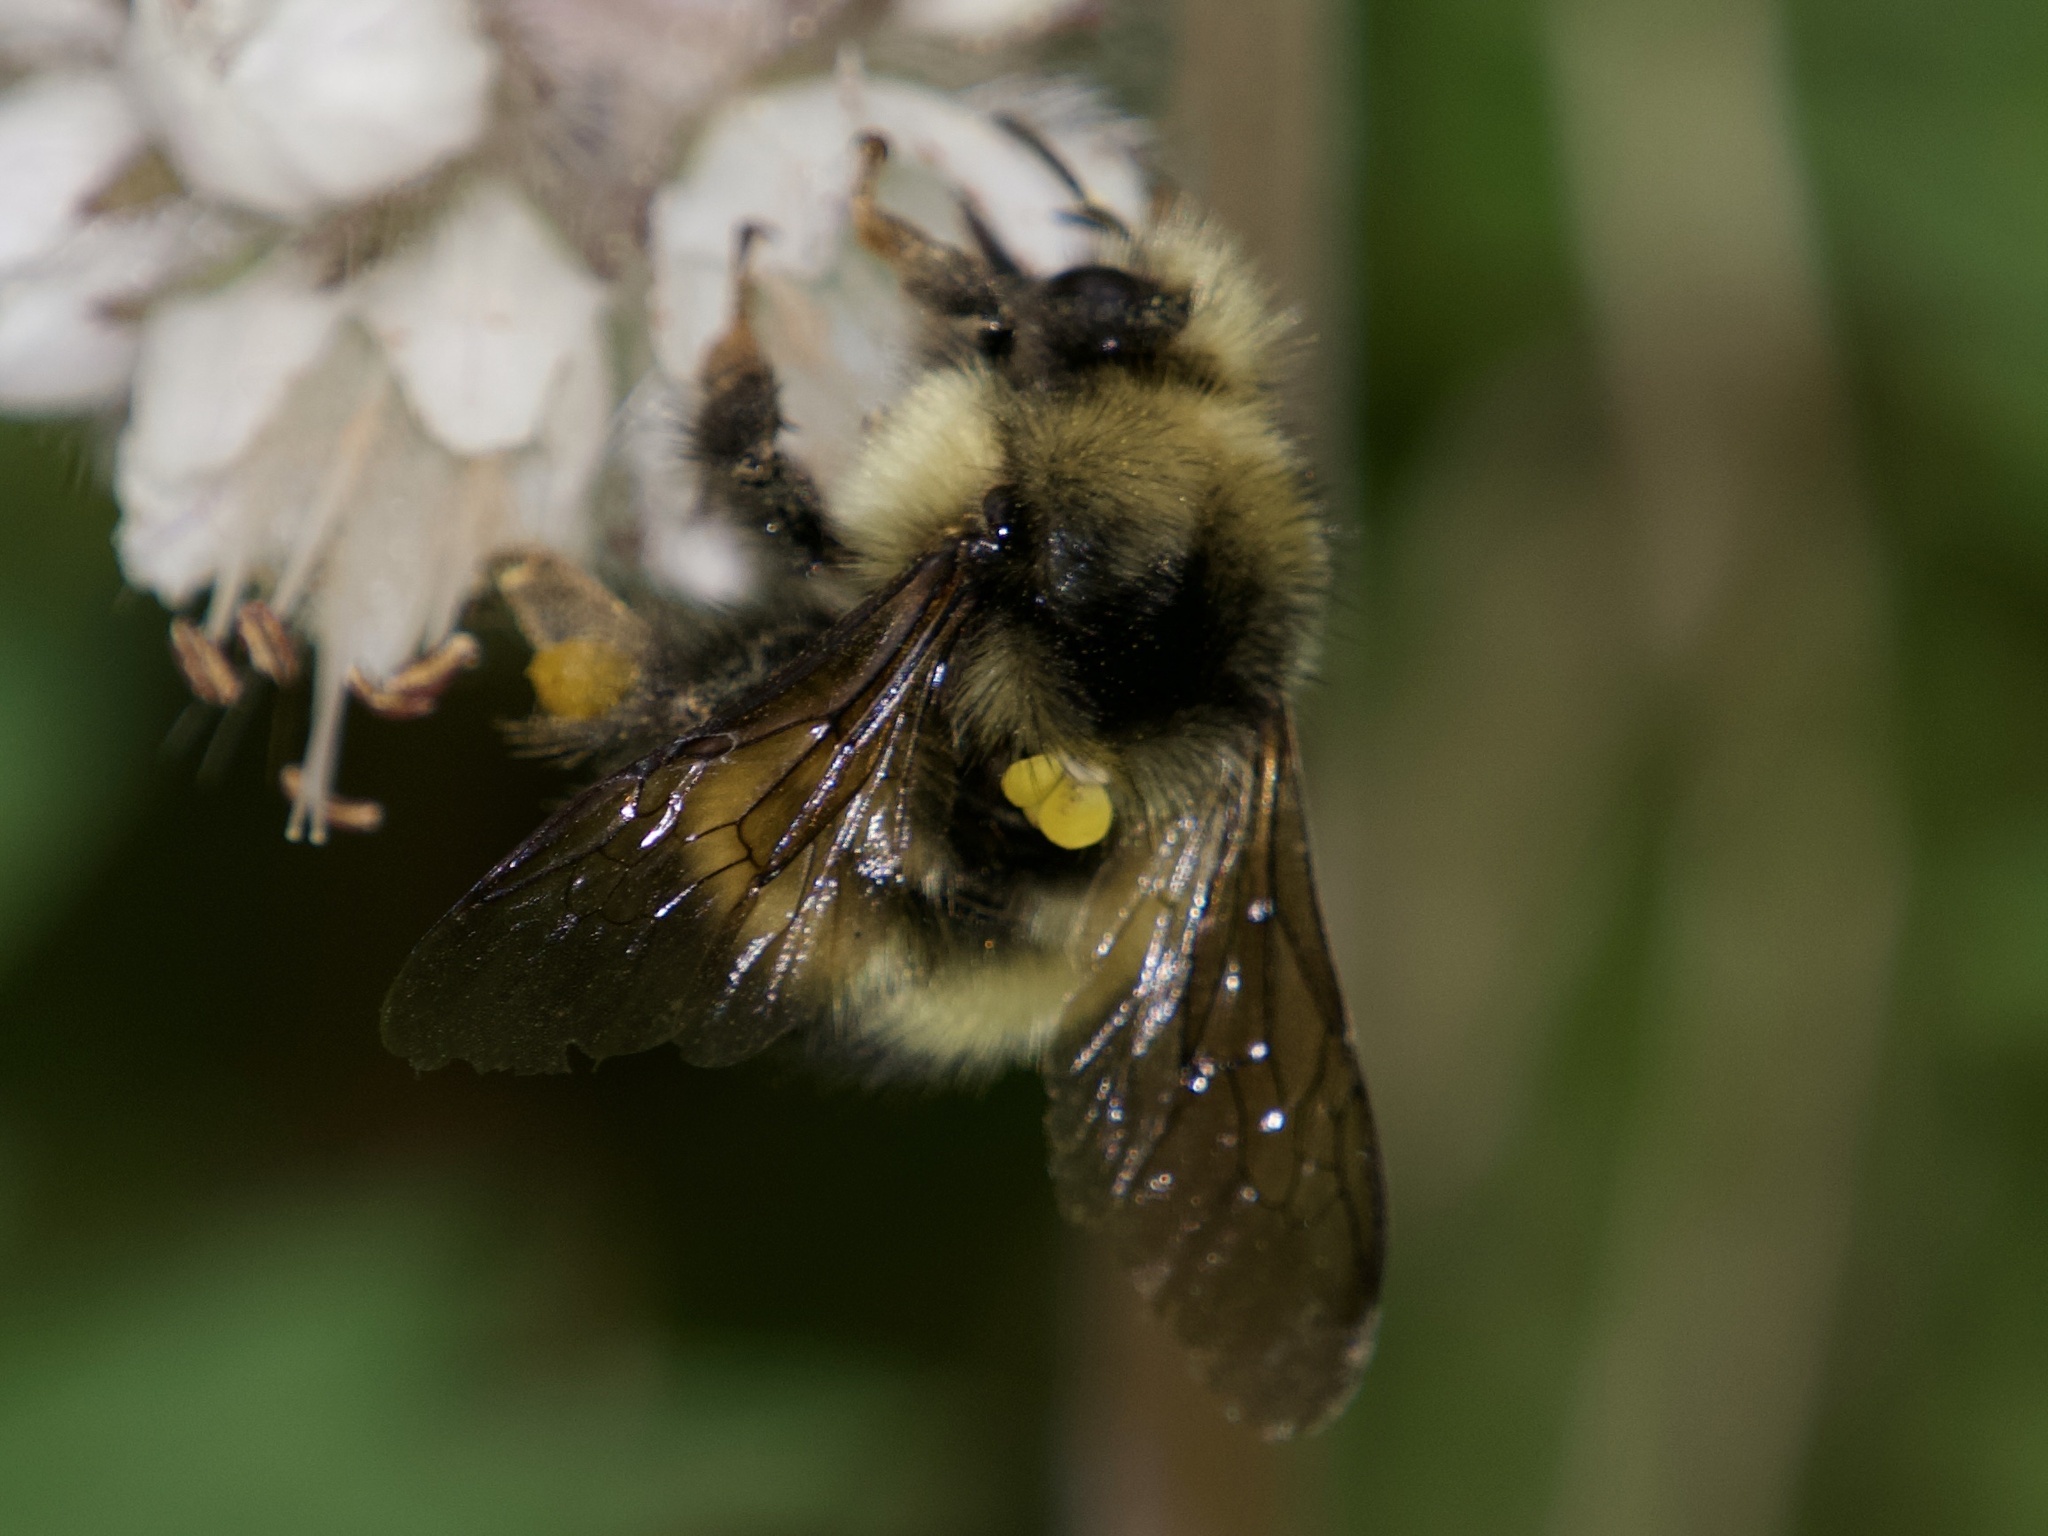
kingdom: Animalia
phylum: Arthropoda
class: Insecta
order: Hymenoptera
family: Apidae
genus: Bombus
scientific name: Bombus flavifrons
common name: Yellow head bumble bee
